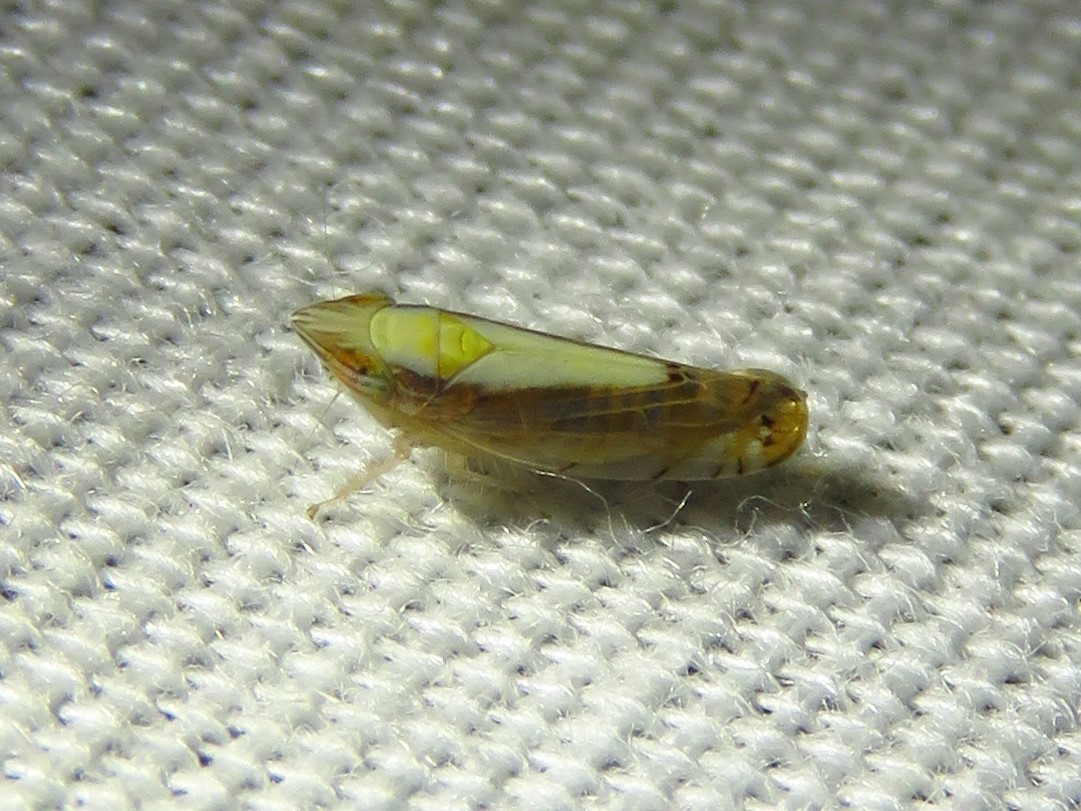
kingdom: Animalia
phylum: Arthropoda
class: Insecta
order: Hemiptera
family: Cicadellidae
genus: Scaphytopius
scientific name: Scaphytopius elegans
